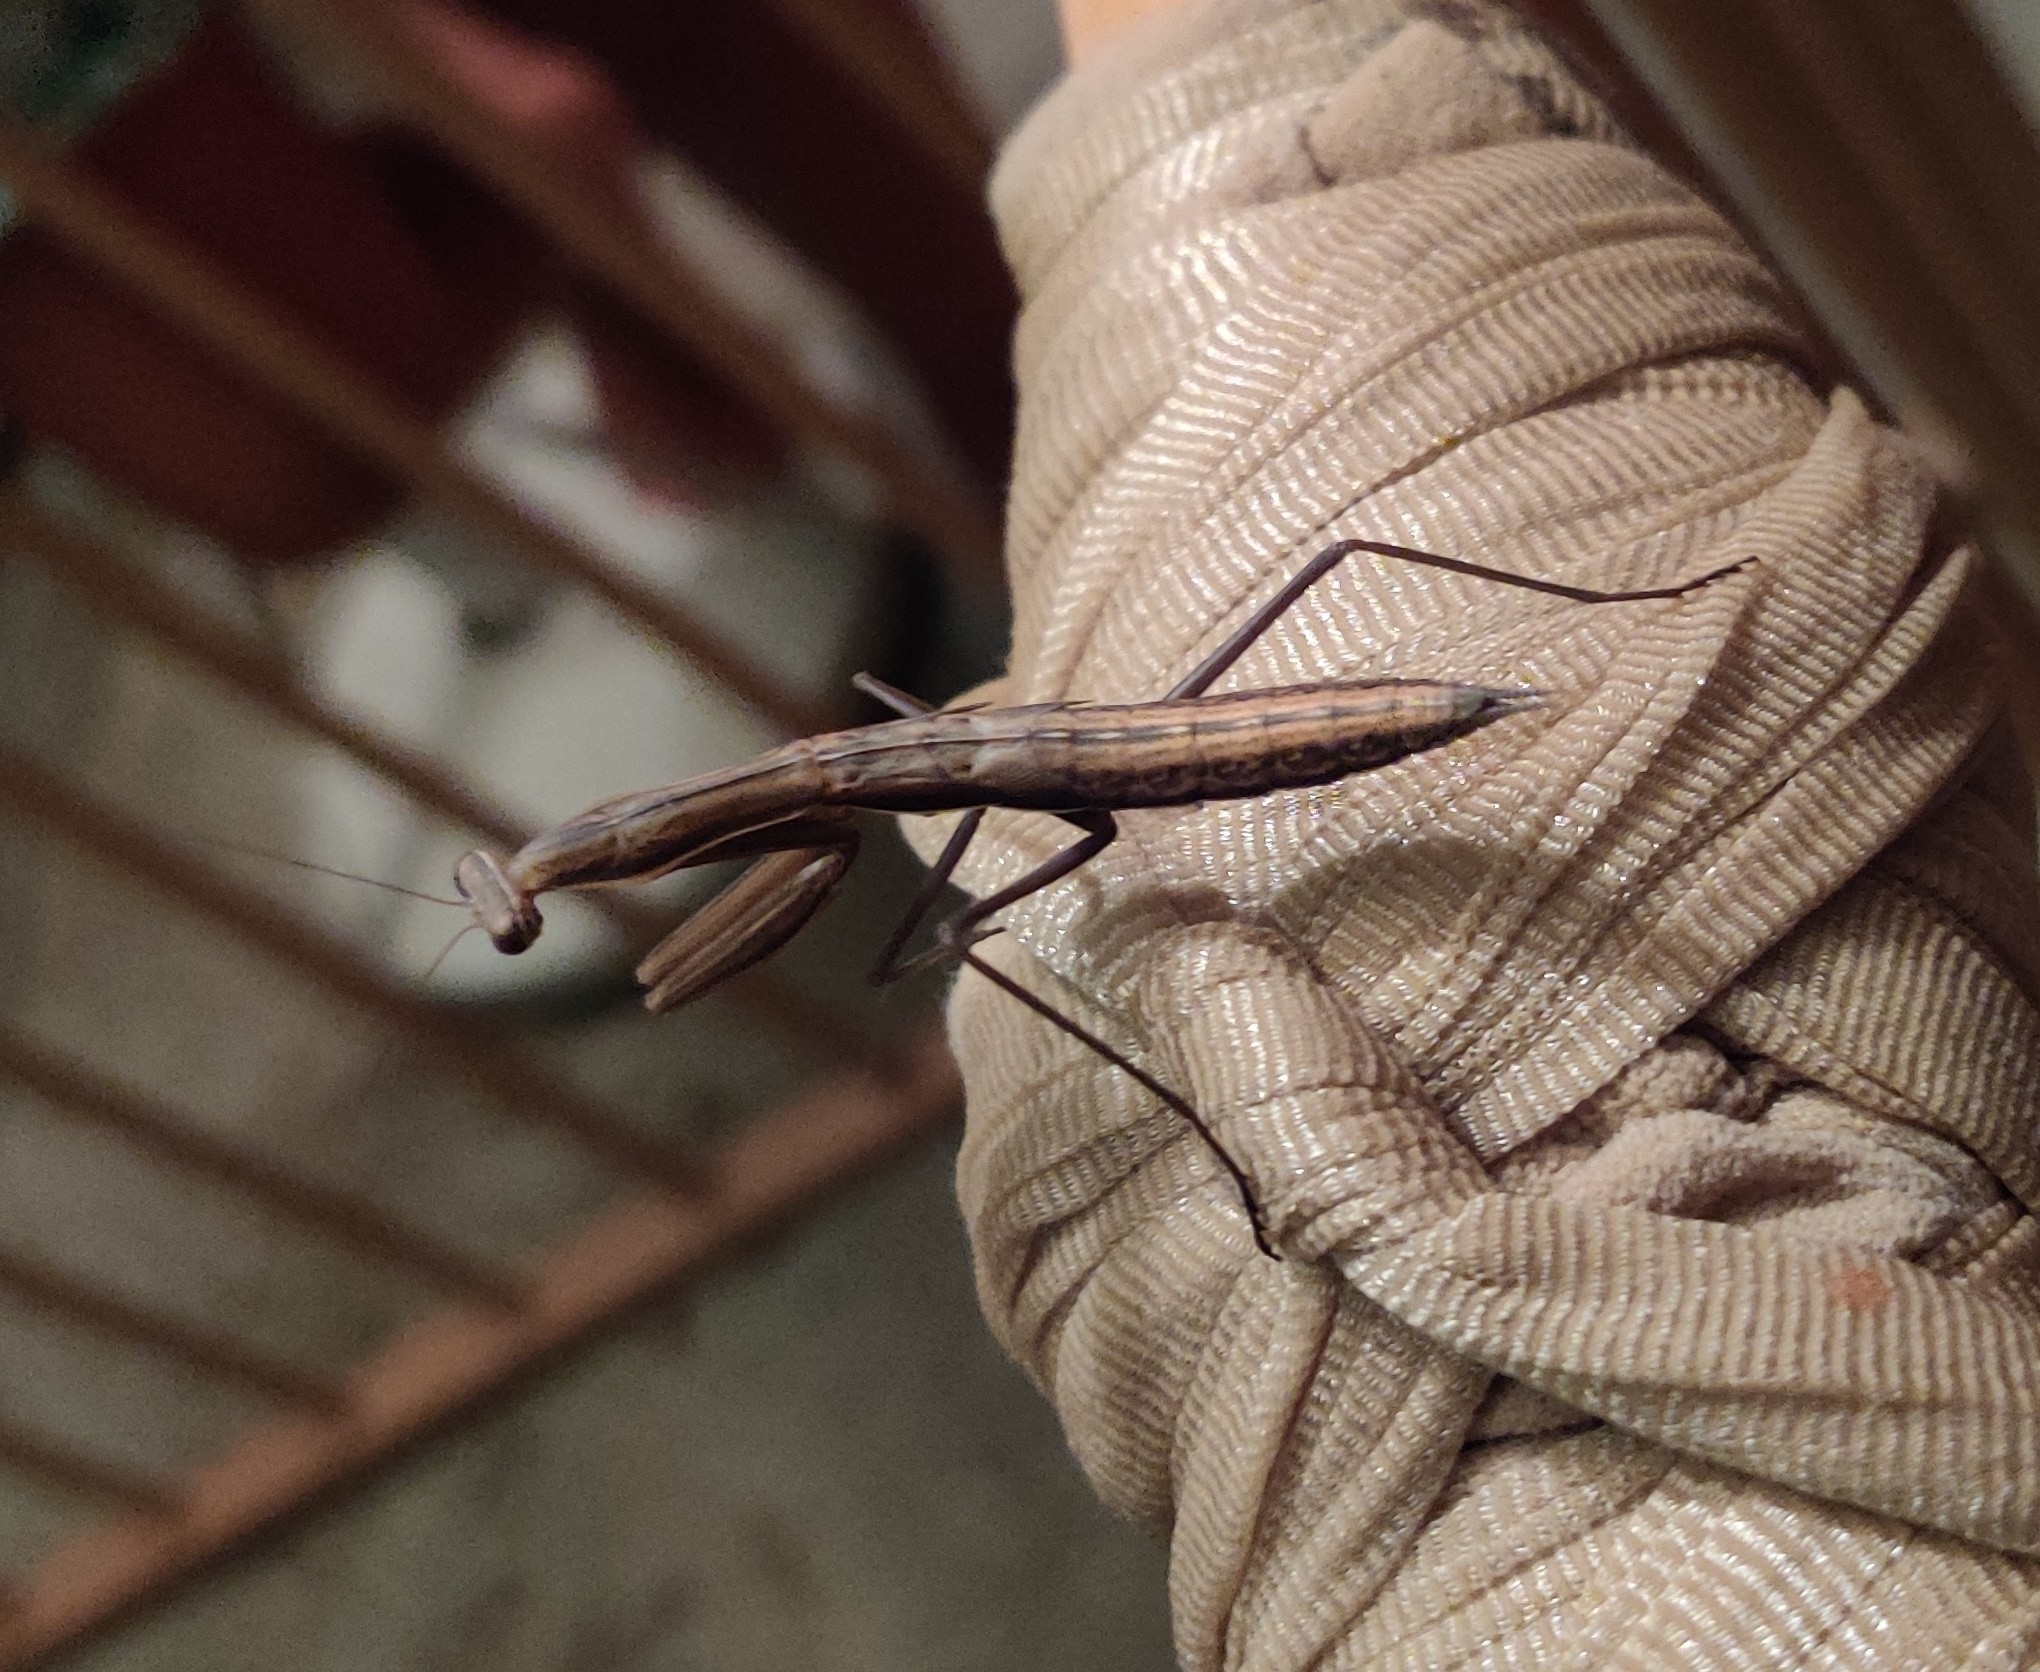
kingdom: Animalia
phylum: Arthropoda
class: Insecta
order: Mantodea
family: Mantidae
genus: Mantis
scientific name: Mantis religiosa
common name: Praying mantis
